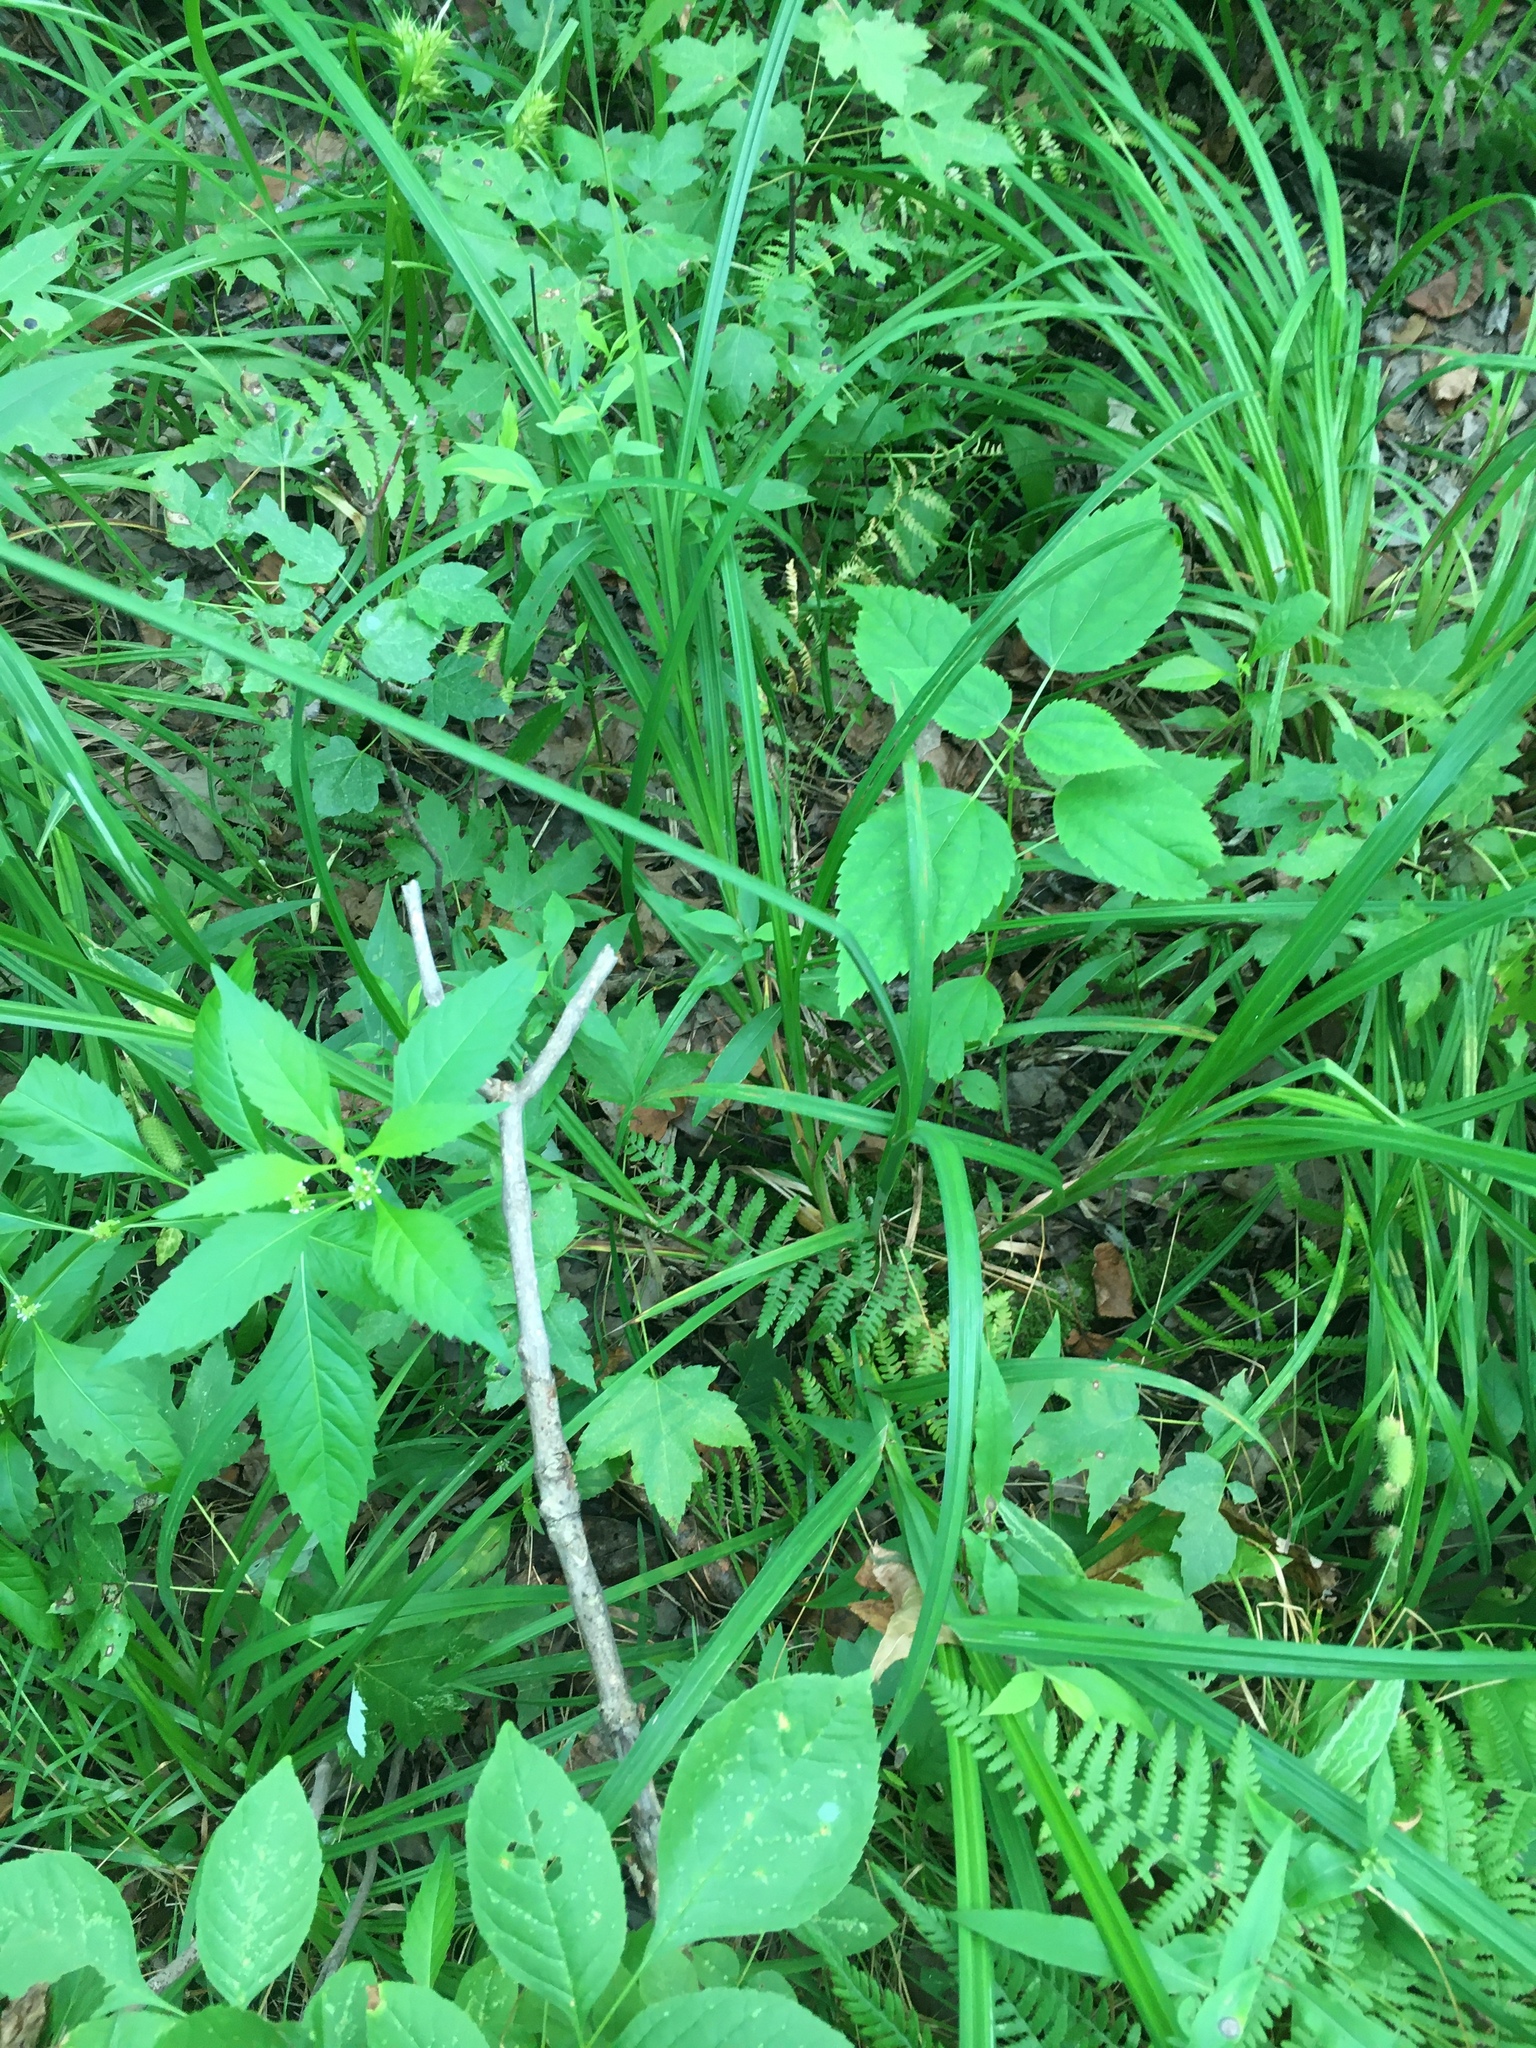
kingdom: Plantae
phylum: Tracheophyta
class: Liliopsida
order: Poales
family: Cyperaceae
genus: Carex
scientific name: Carex crinita
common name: Fringed sedge
